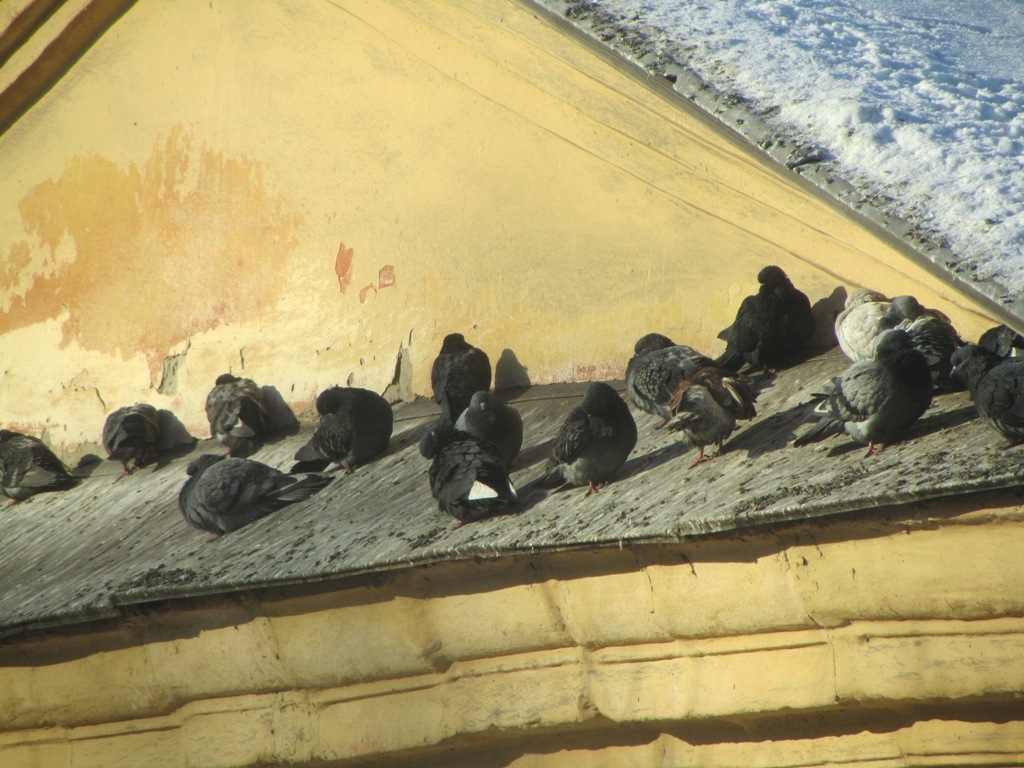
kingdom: Animalia
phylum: Chordata
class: Aves
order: Columbiformes
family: Columbidae
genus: Columba
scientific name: Columba livia
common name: Rock pigeon
